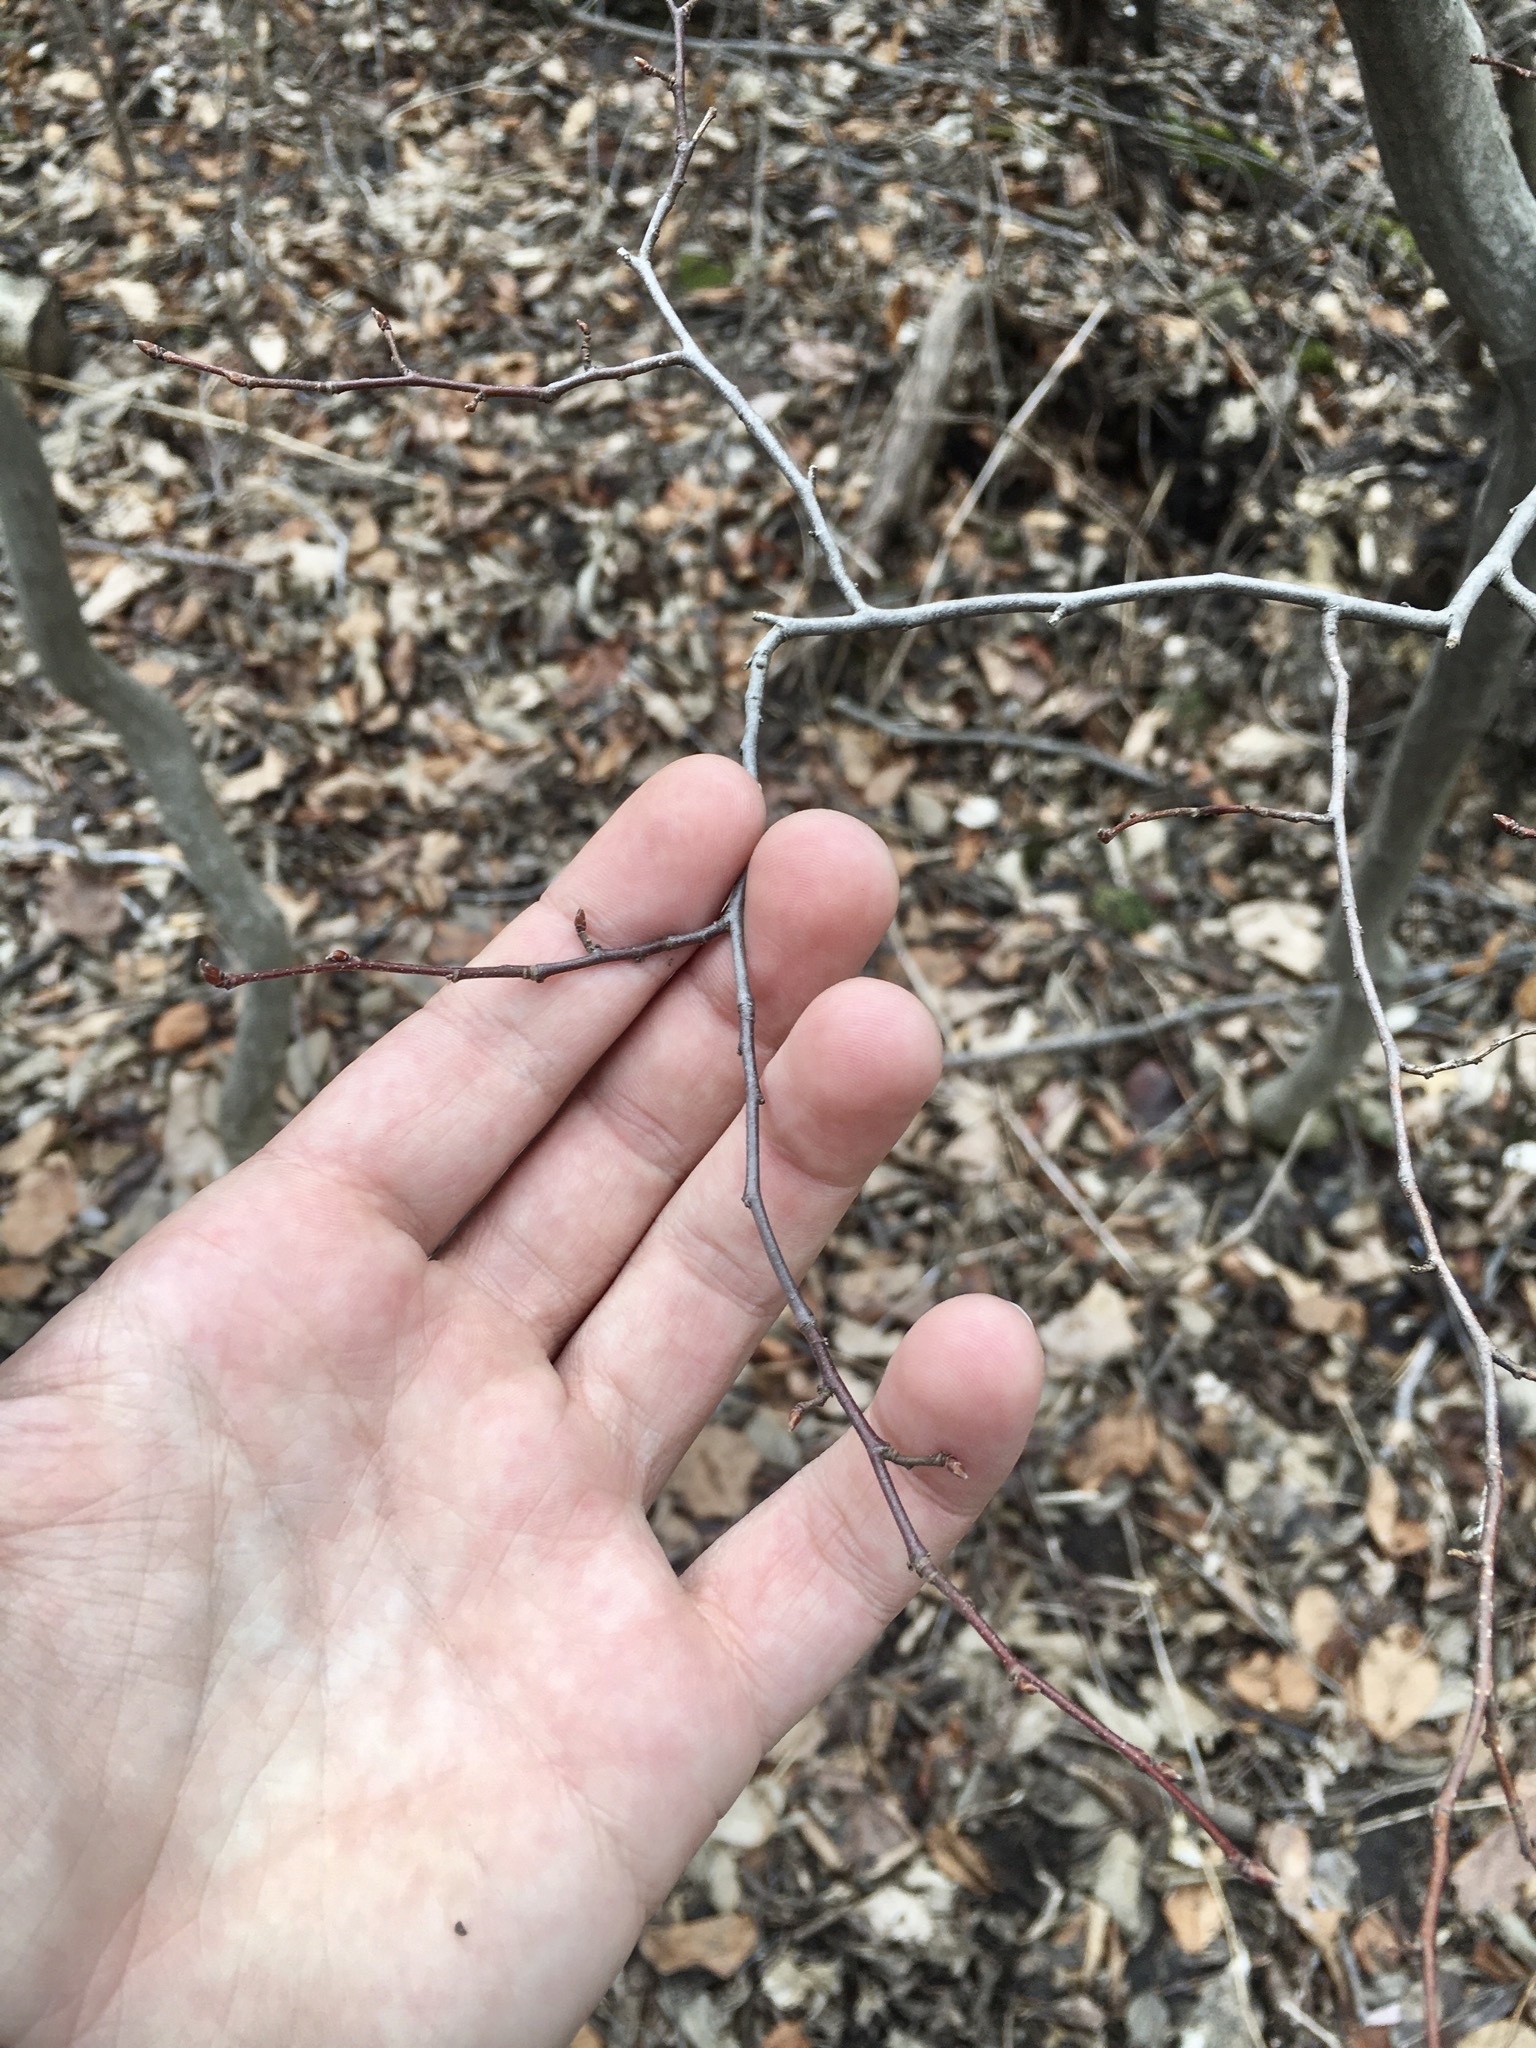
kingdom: Plantae
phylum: Tracheophyta
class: Magnoliopsida
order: Fagales
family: Betulaceae
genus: Carpinus
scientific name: Carpinus caroliniana
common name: American hornbeam
